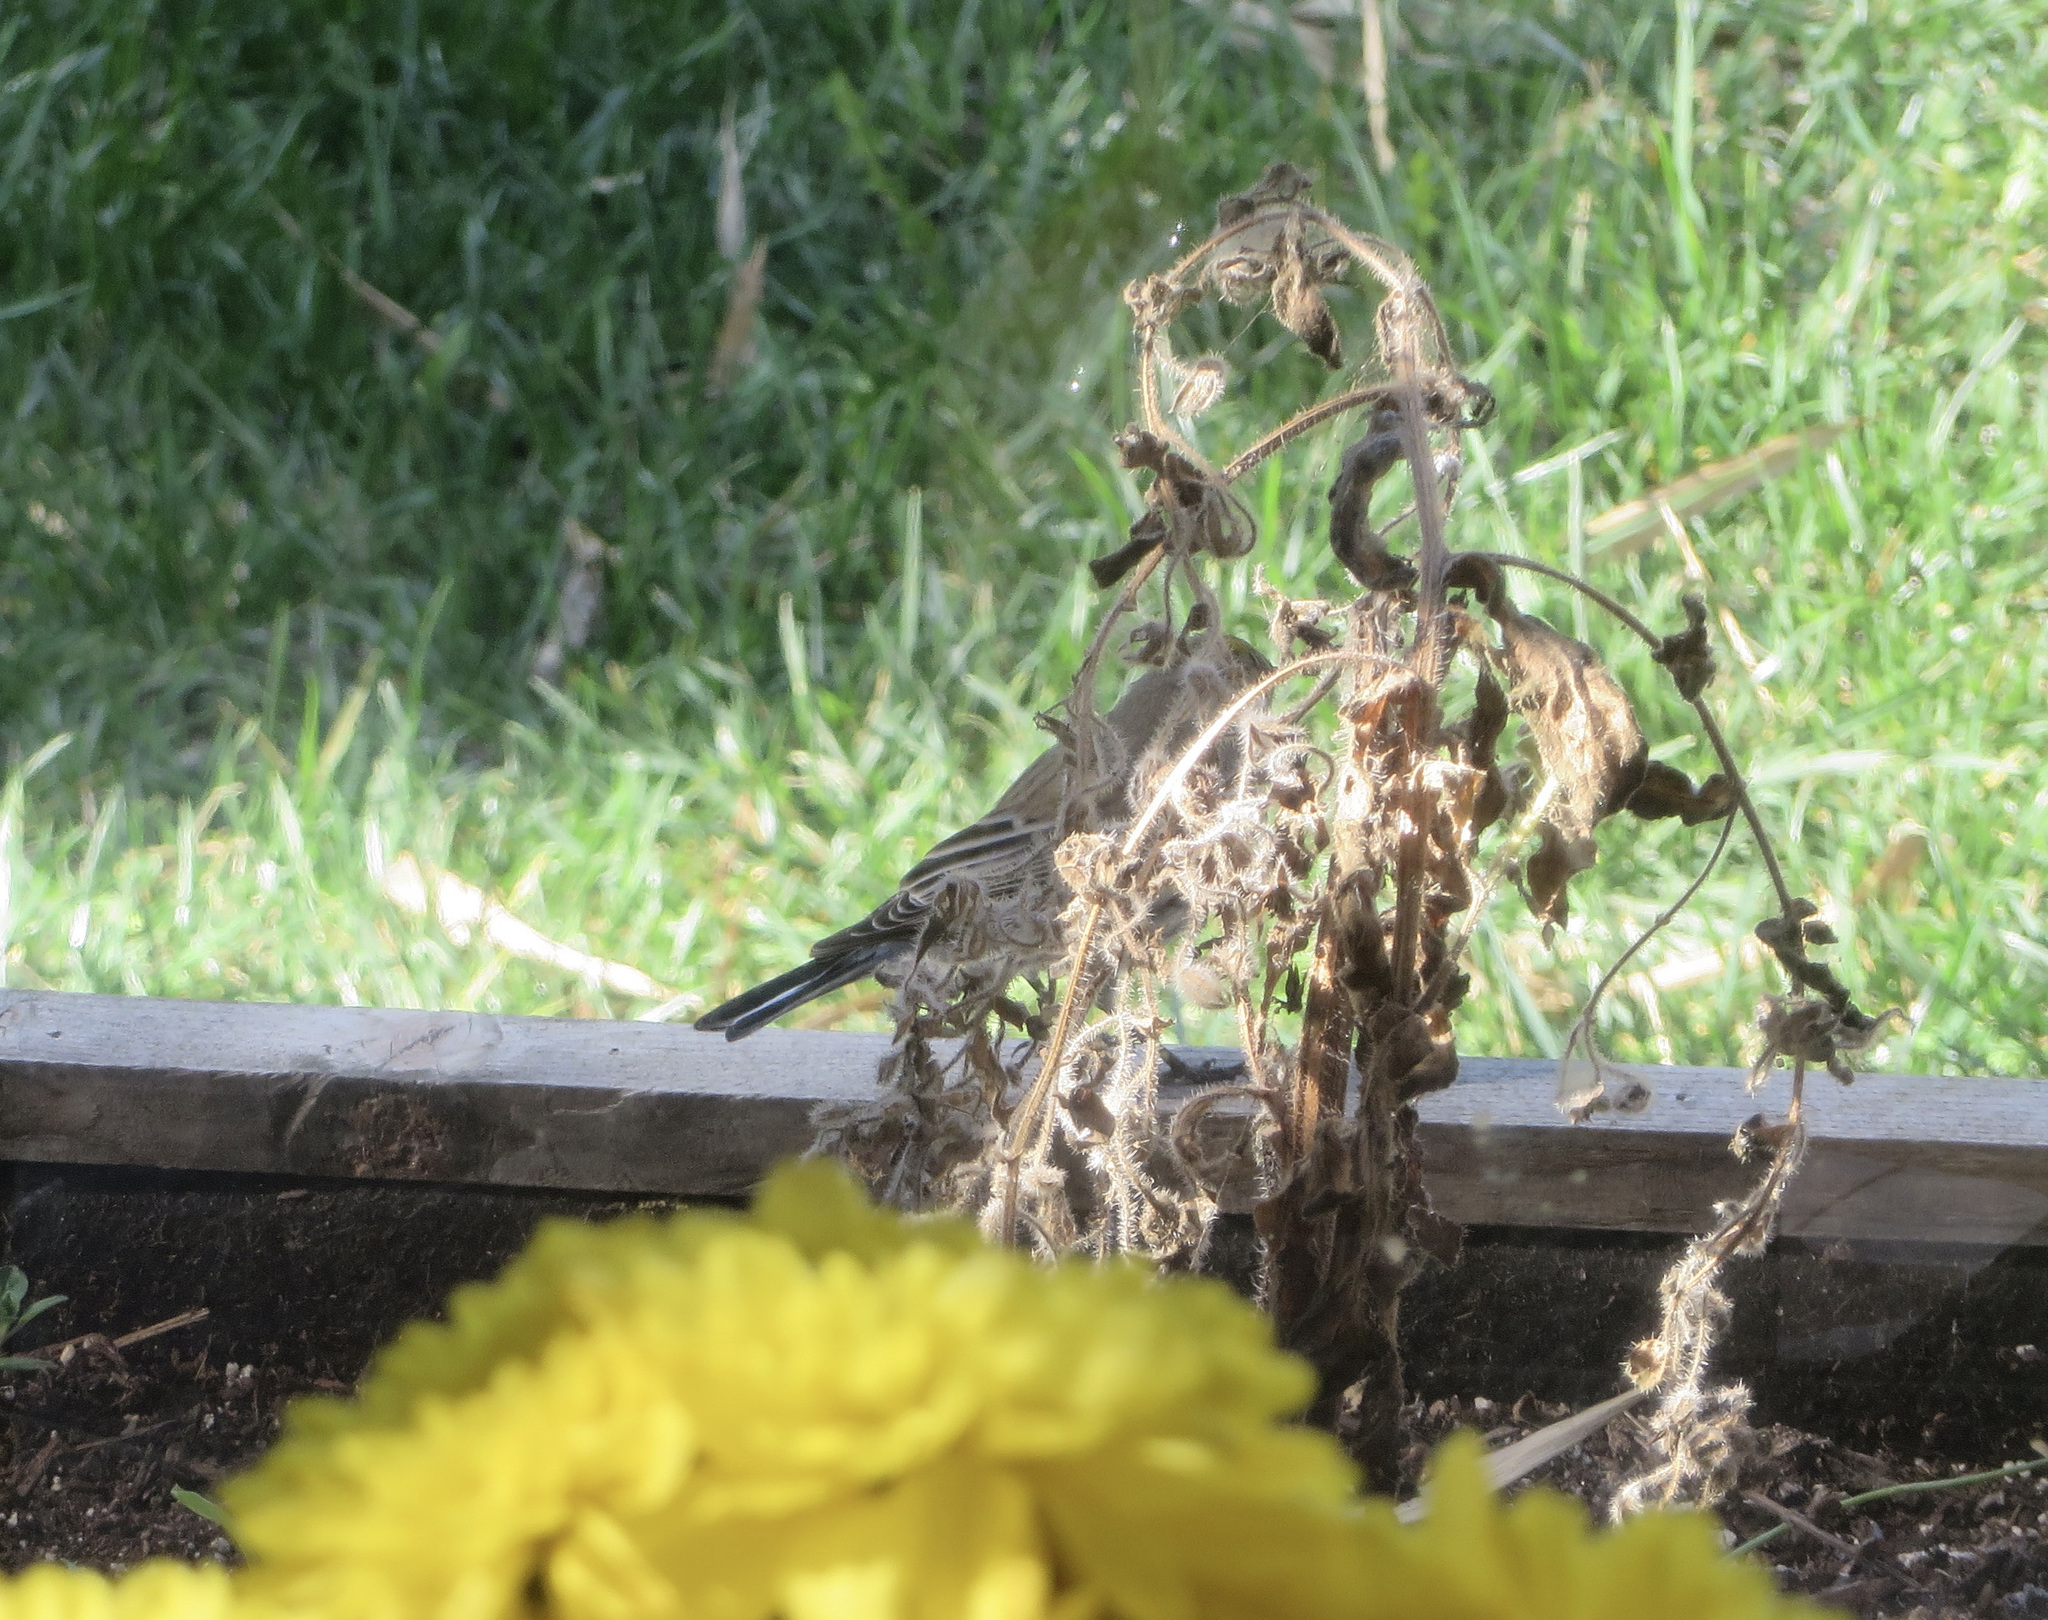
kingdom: Animalia
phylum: Chordata
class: Aves
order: Passeriformes
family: Parulidae
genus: Setophaga
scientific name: Setophaga auduboni
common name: Audubon's warbler
